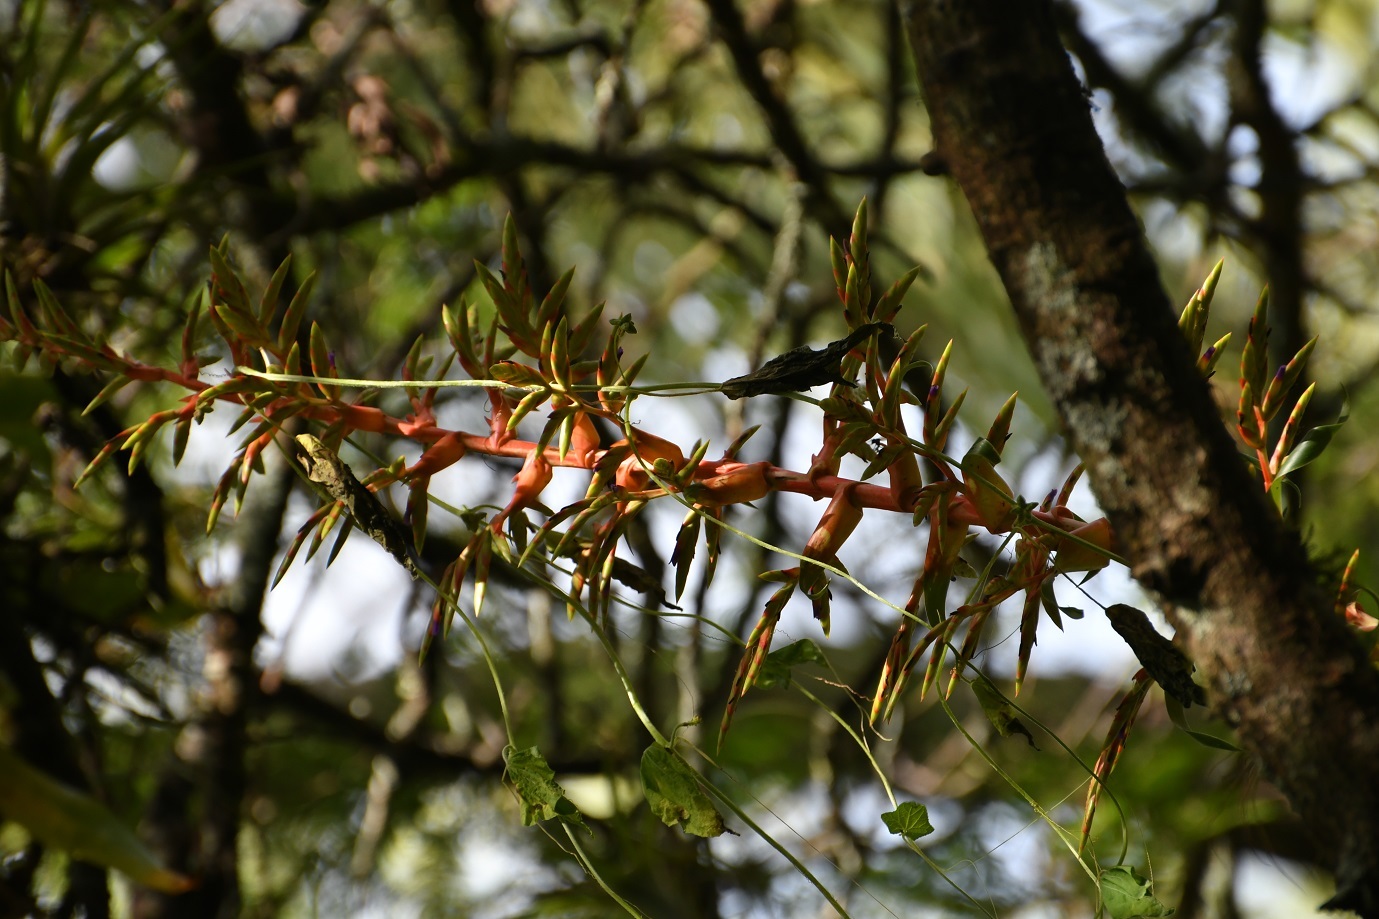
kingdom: Plantae
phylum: Tracheophyta
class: Liliopsida
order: Poales
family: Bromeliaceae
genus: Tillandsia
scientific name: Tillandsia excelsa
